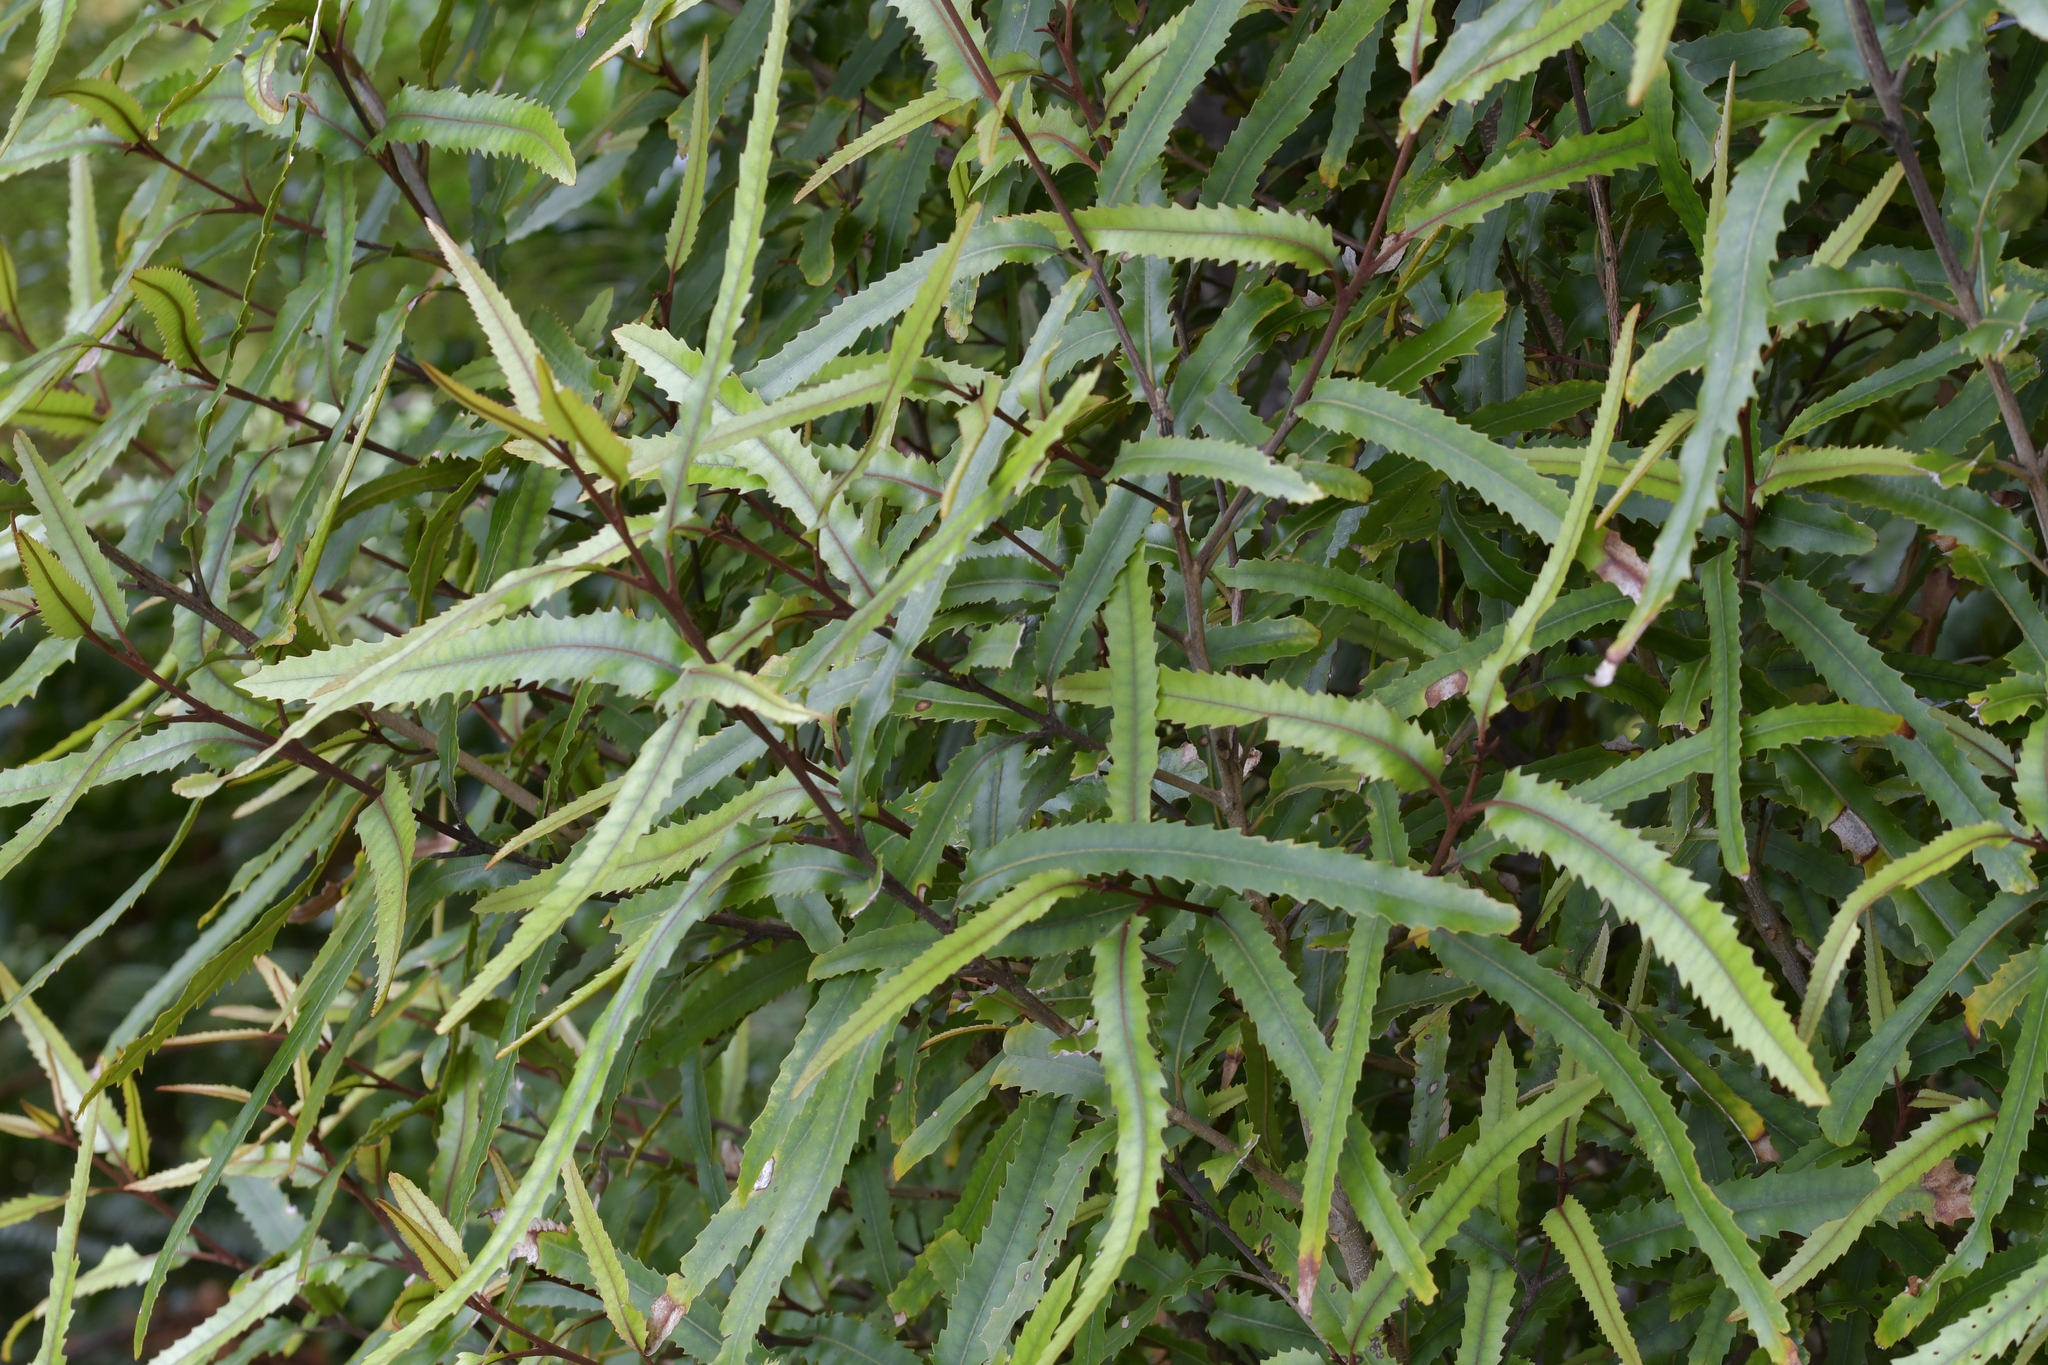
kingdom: Plantae
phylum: Tracheophyta
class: Magnoliopsida
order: Proteales
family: Proteaceae
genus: Knightia
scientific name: Knightia excelsa
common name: New zealand-honeysuckle
